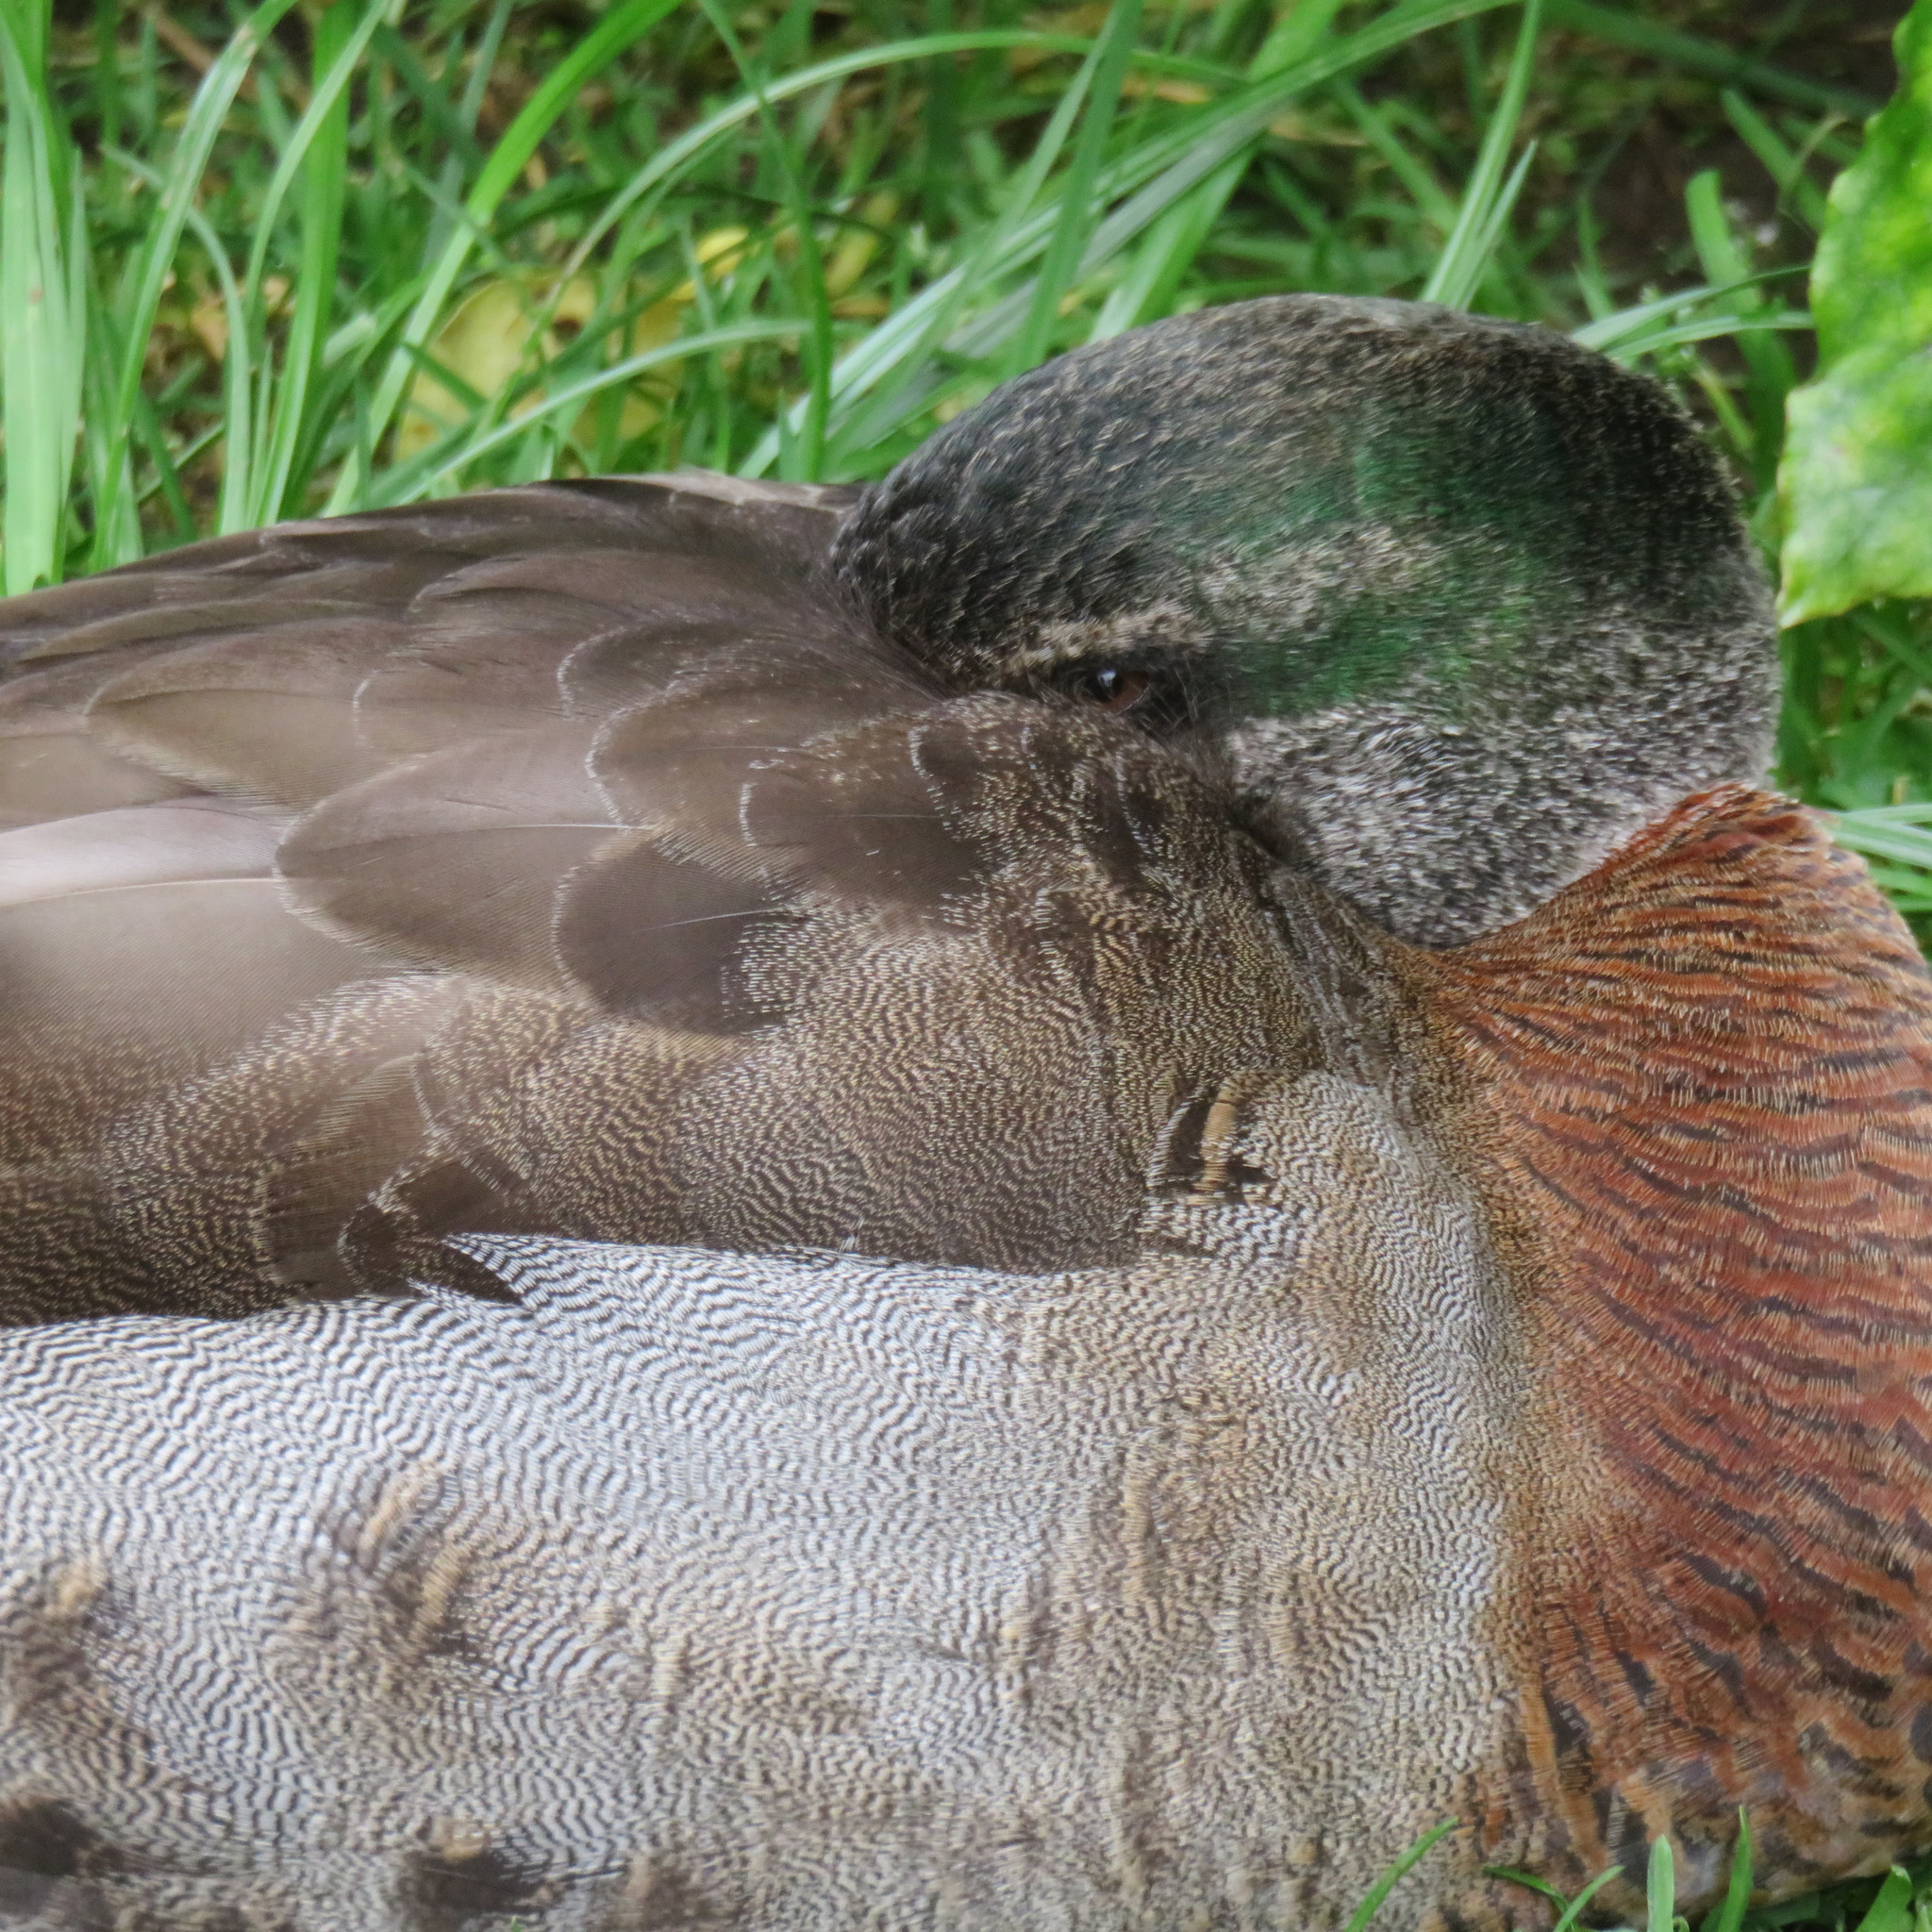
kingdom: Animalia
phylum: Chordata
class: Aves
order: Anseriformes
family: Anatidae
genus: Anas
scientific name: Anas platyrhynchos
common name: Mallard
